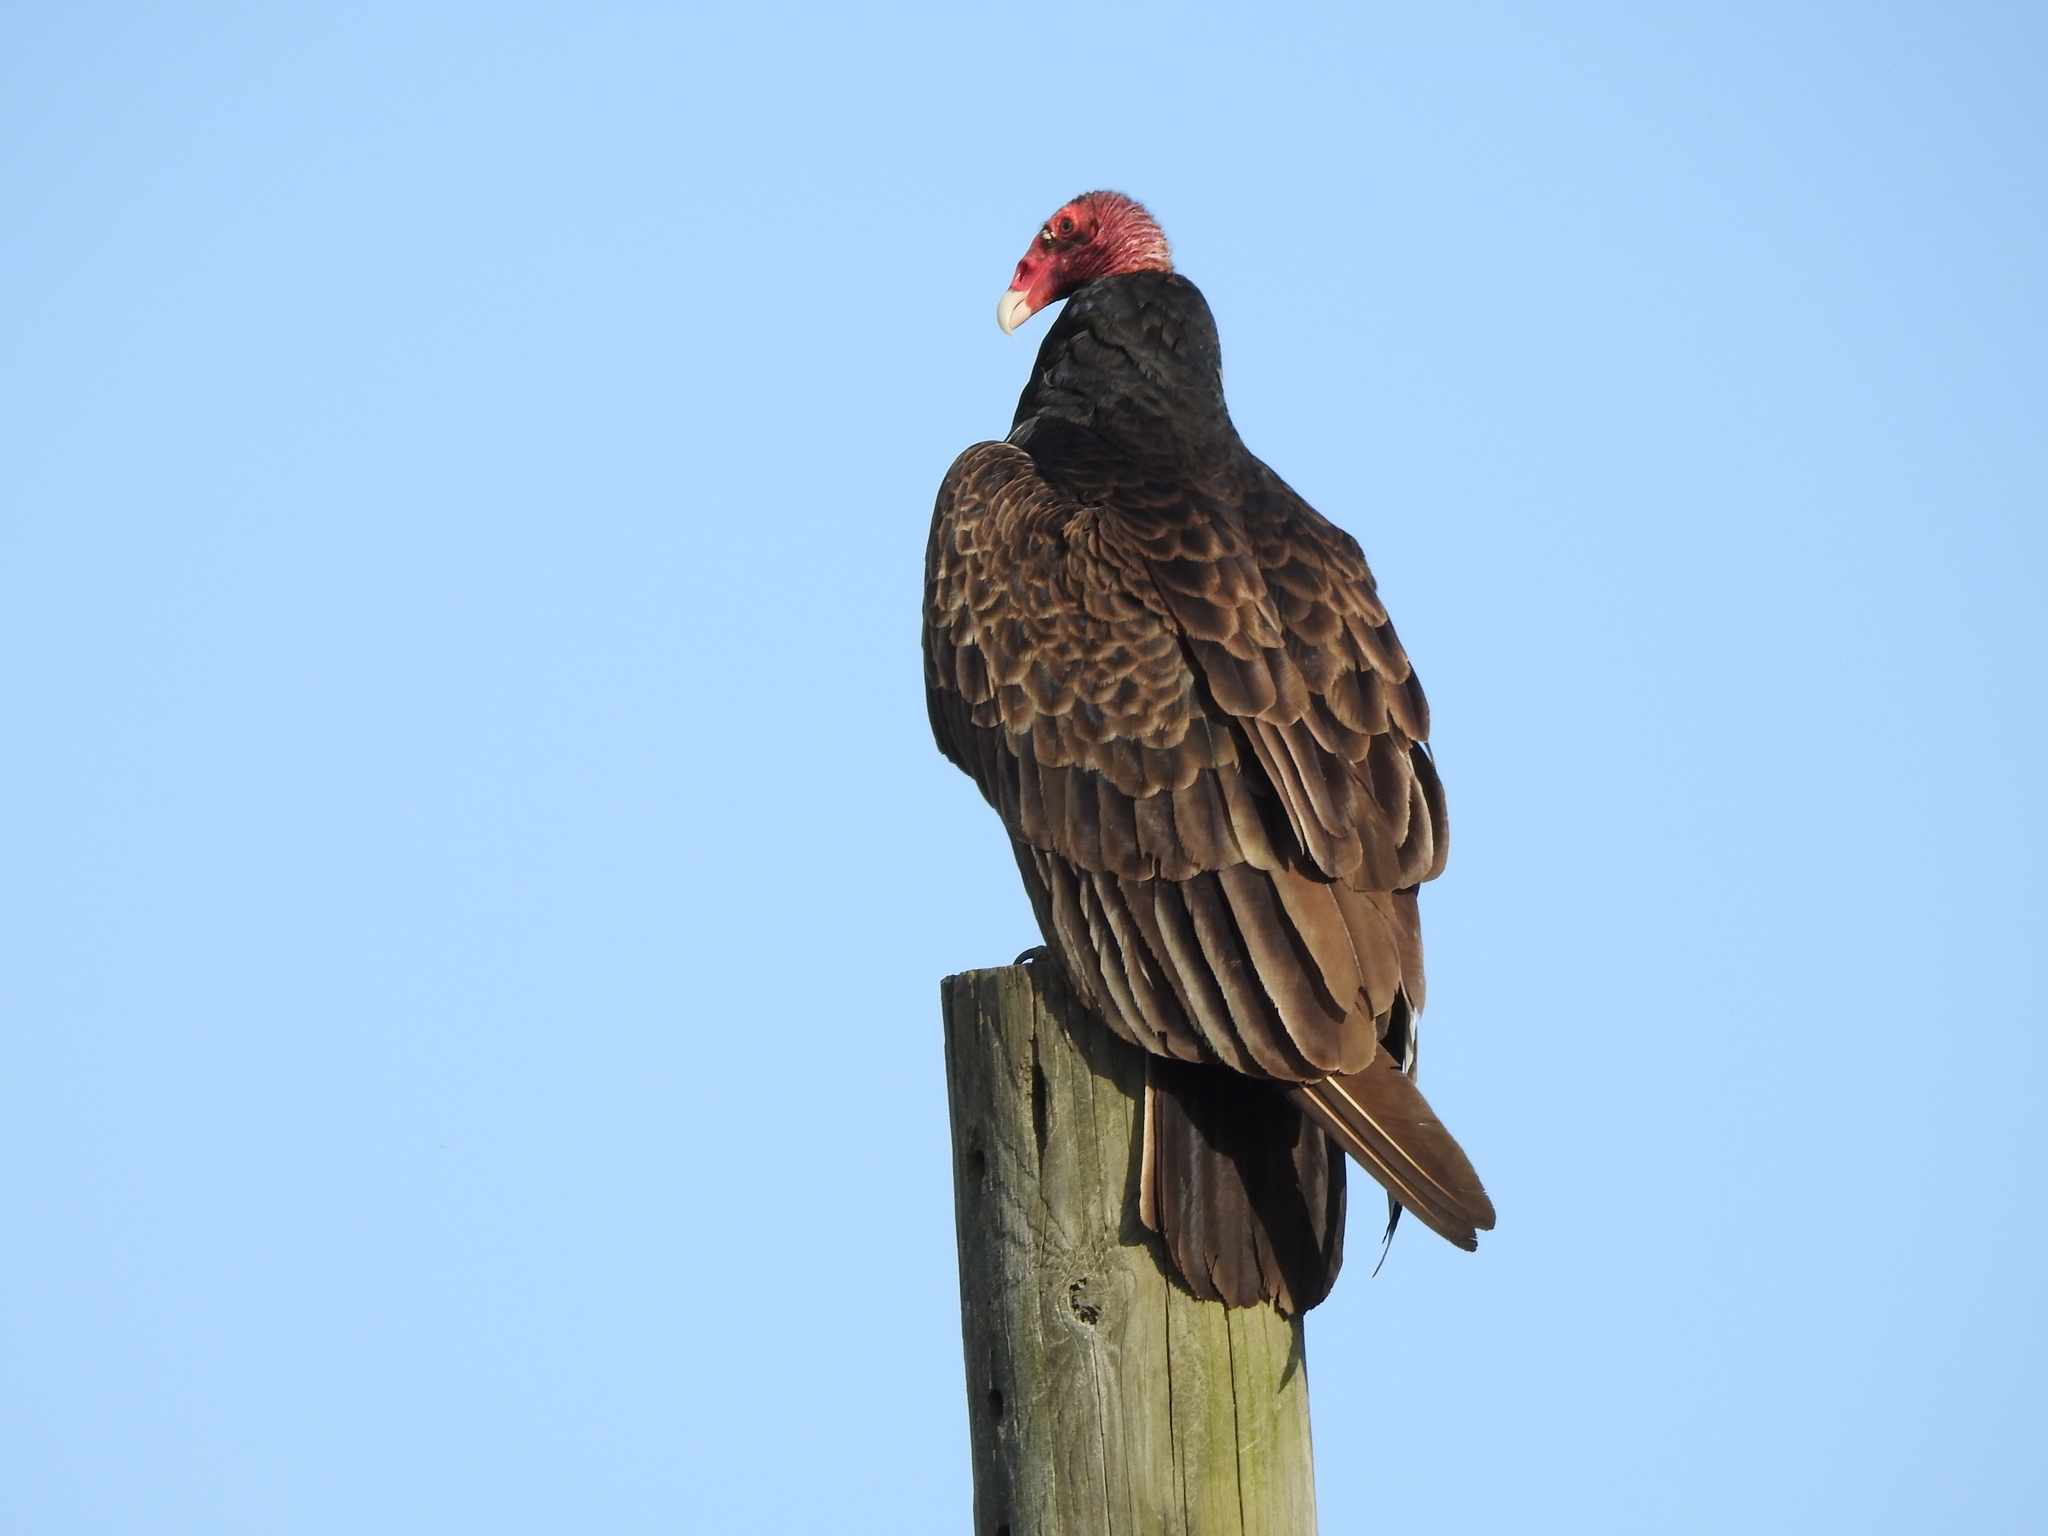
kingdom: Animalia
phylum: Chordata
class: Aves
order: Accipitriformes
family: Cathartidae
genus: Cathartes
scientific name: Cathartes aura
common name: Turkey vulture
